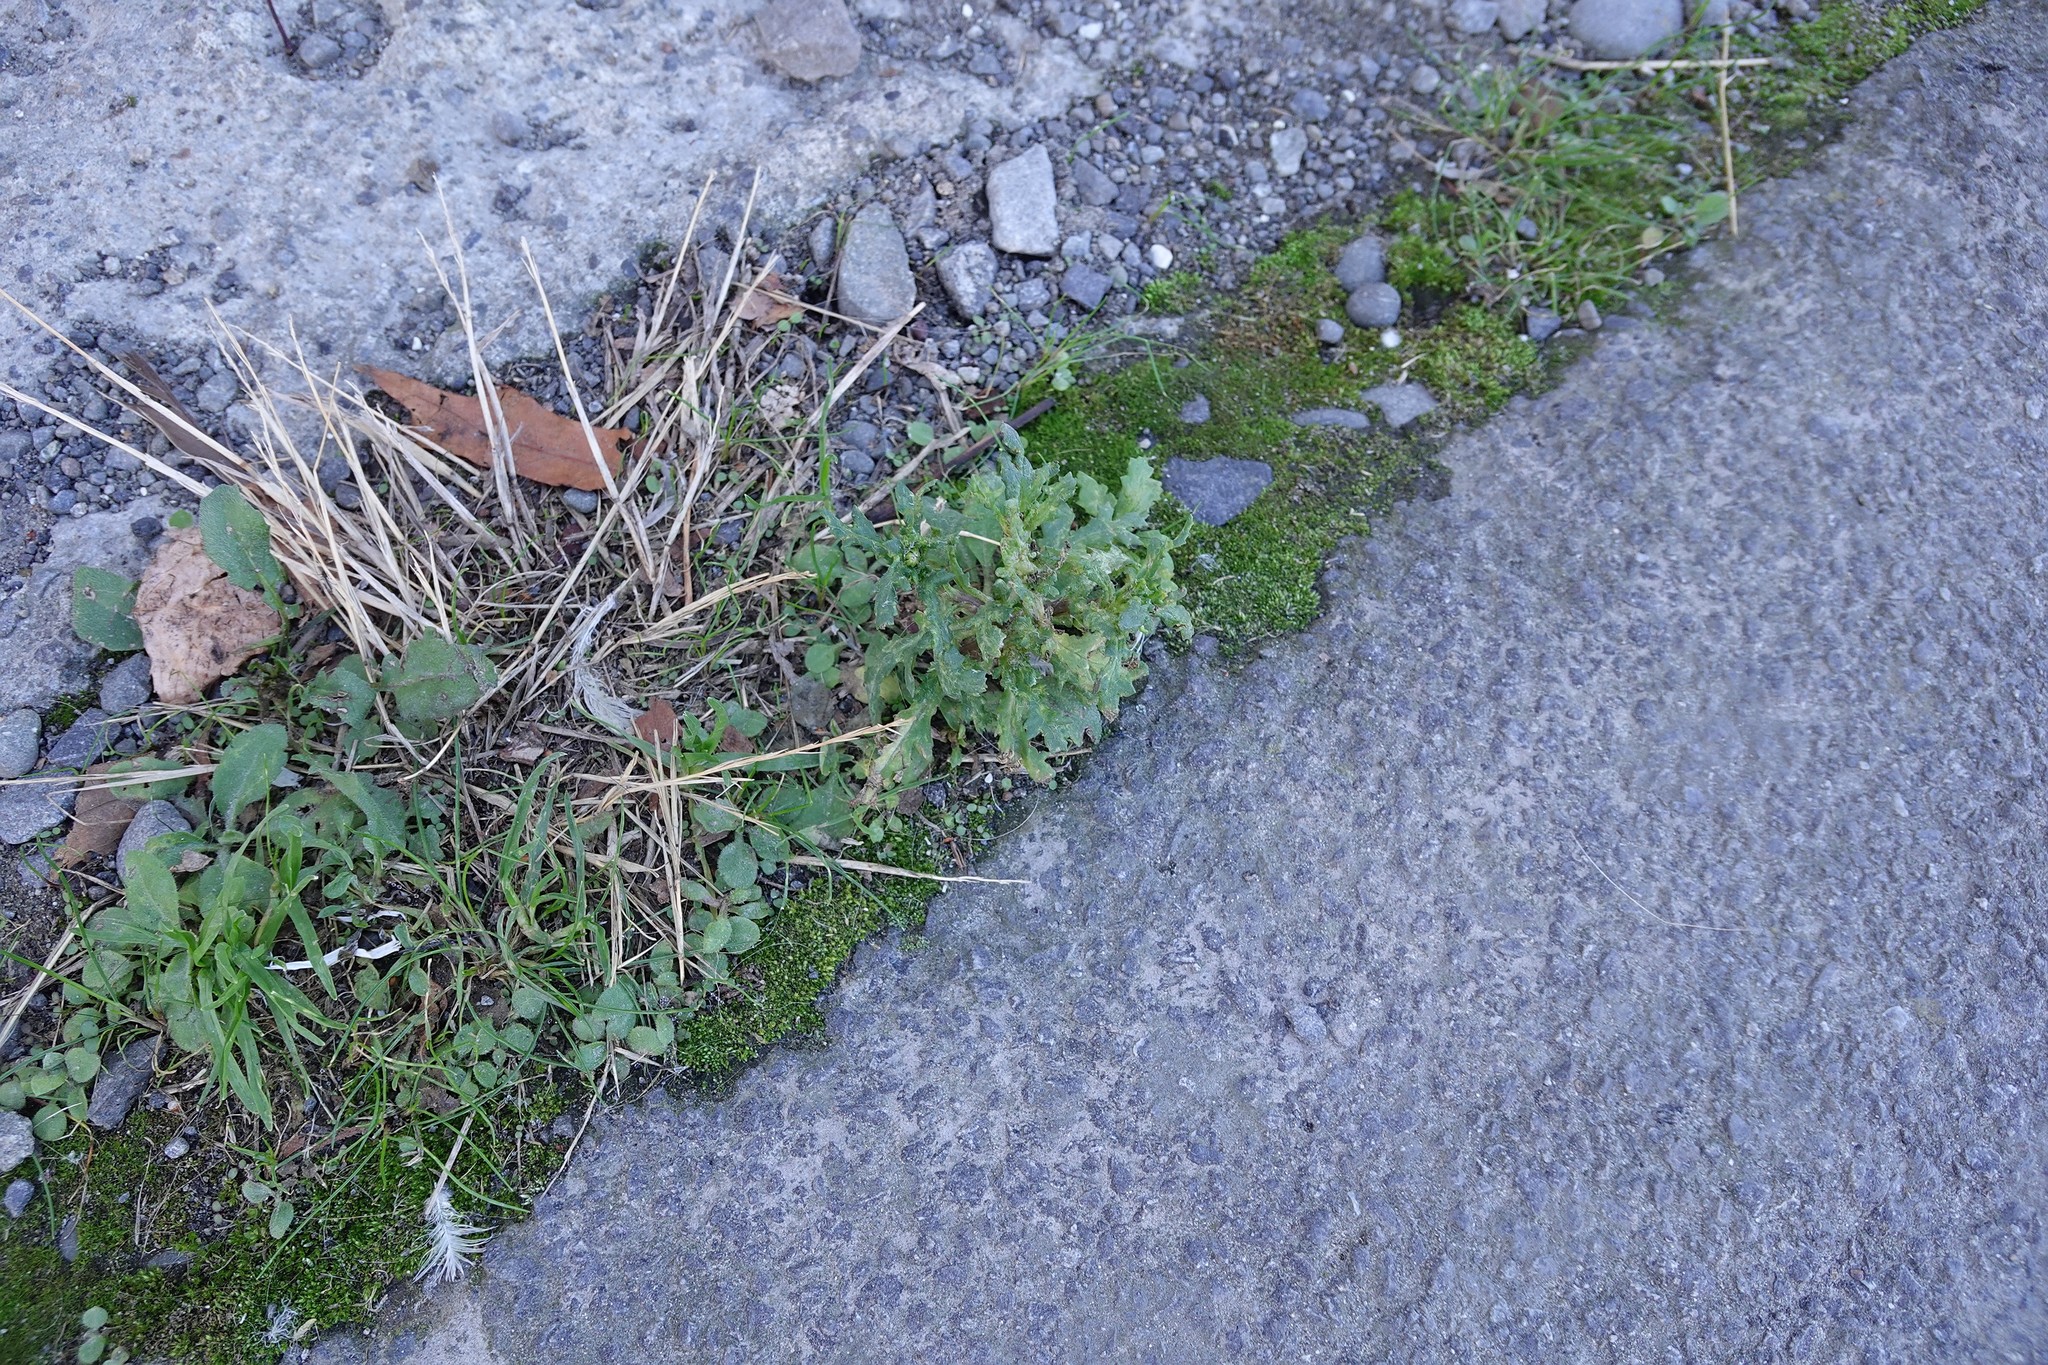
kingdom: Plantae
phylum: Tracheophyta
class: Magnoliopsida
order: Asterales
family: Asteraceae
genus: Senecio
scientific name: Senecio vulgaris
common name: Old-man-in-the-spring
